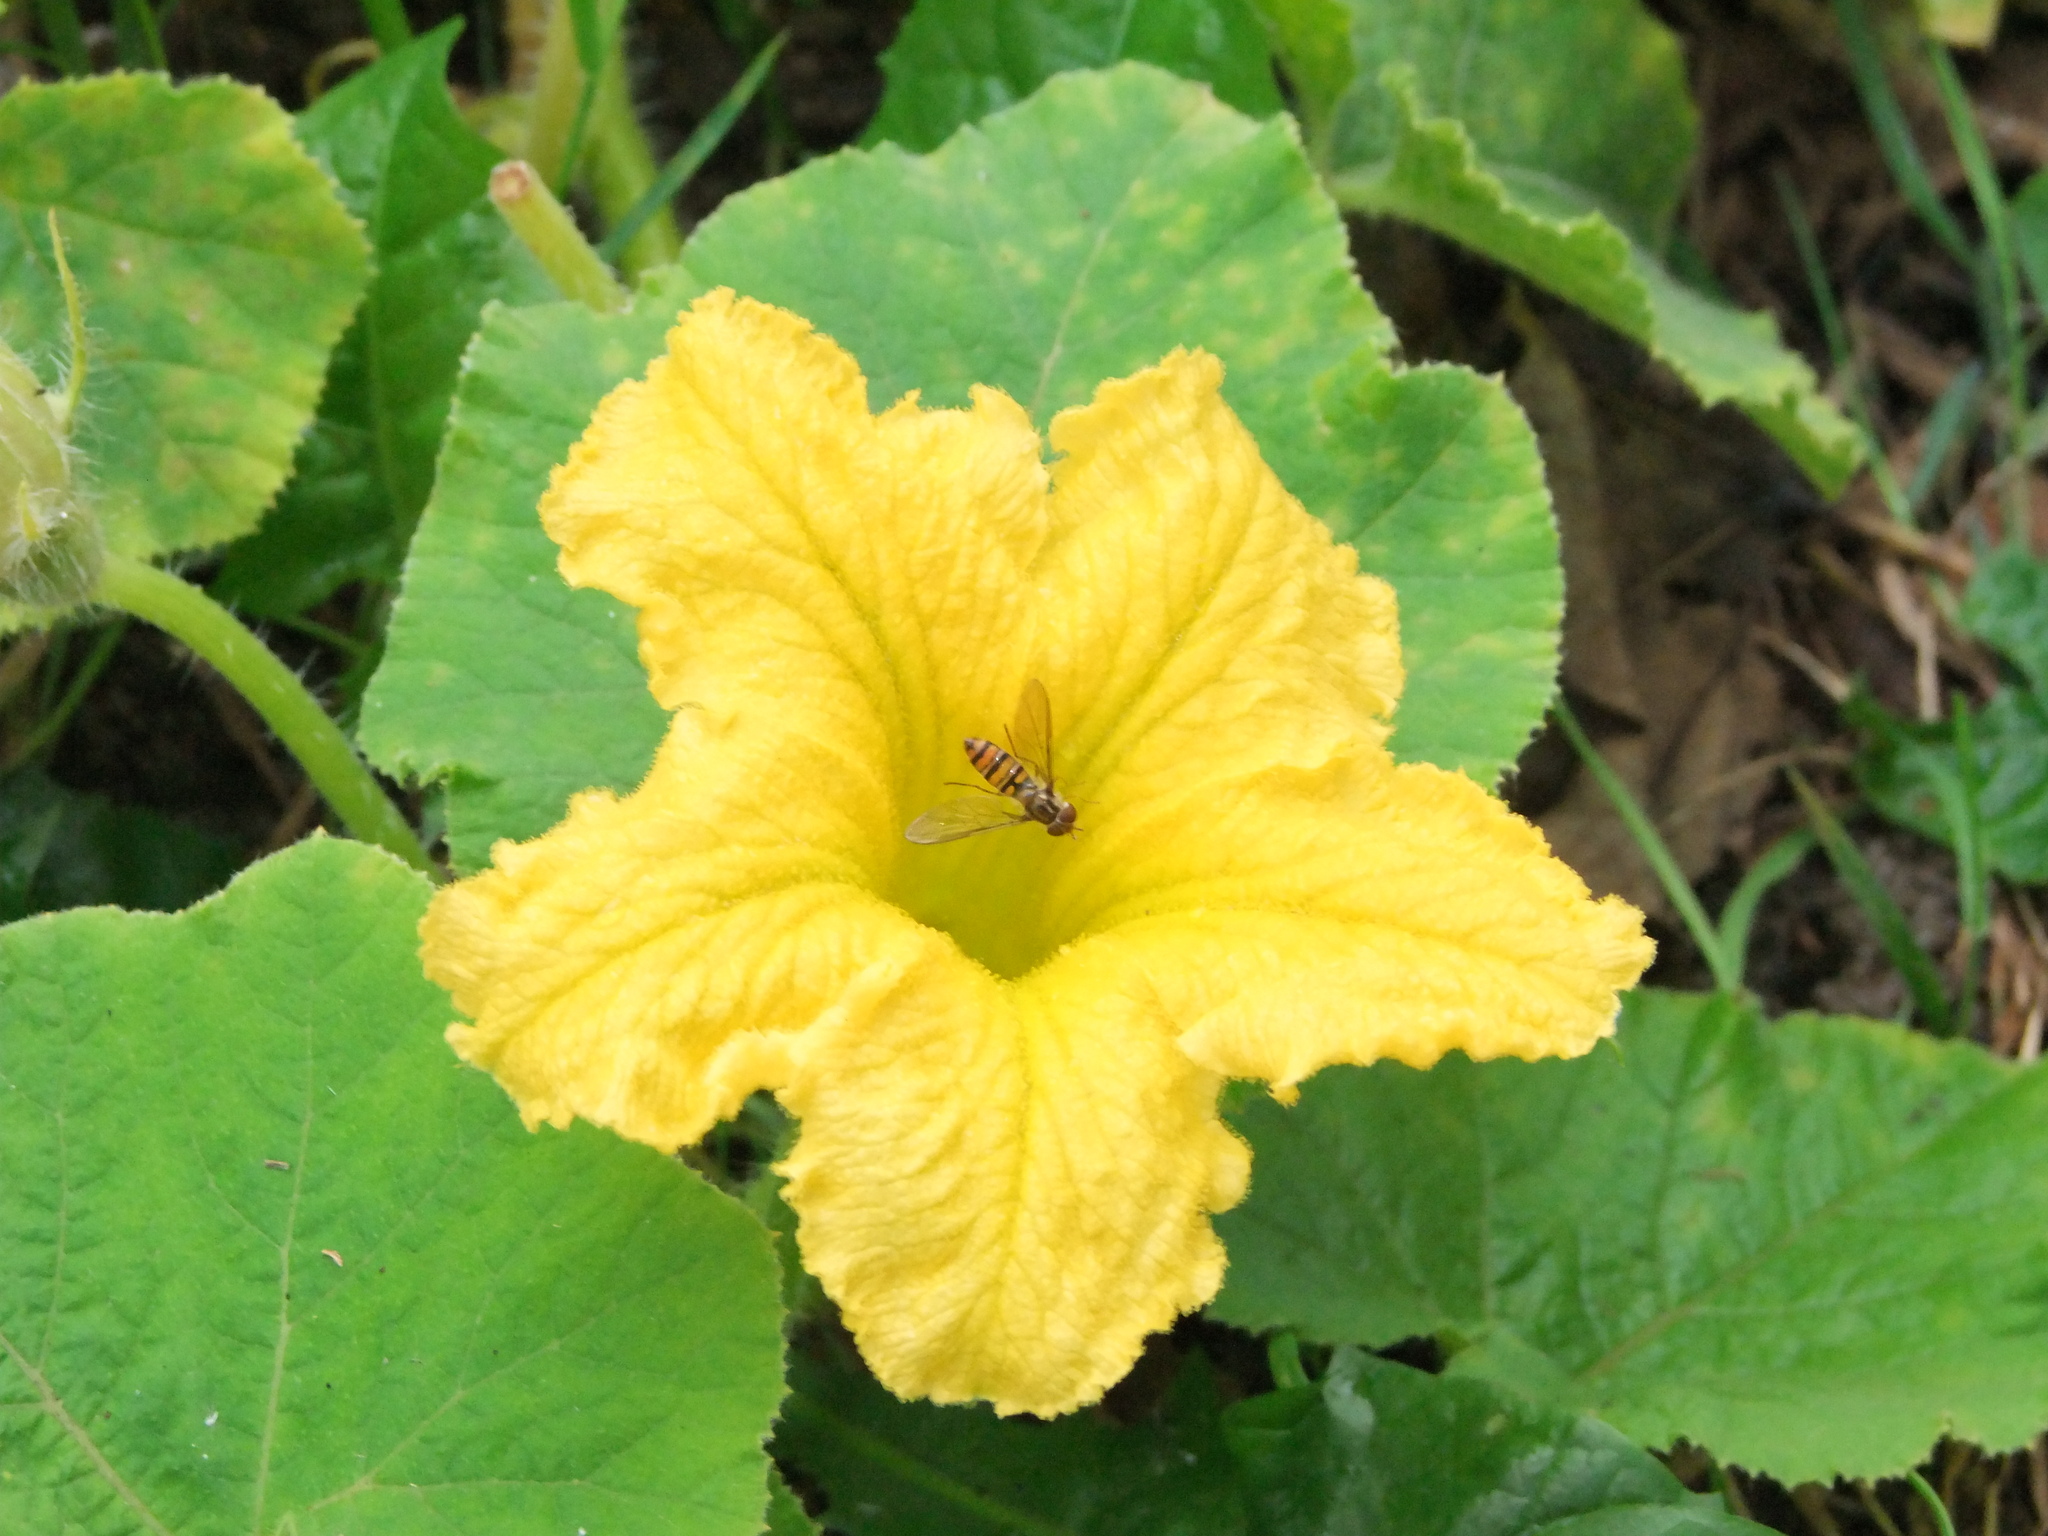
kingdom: Animalia
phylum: Arthropoda
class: Insecta
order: Diptera
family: Syrphidae
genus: Episyrphus
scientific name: Episyrphus balteatus
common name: Marmalade hoverfly
